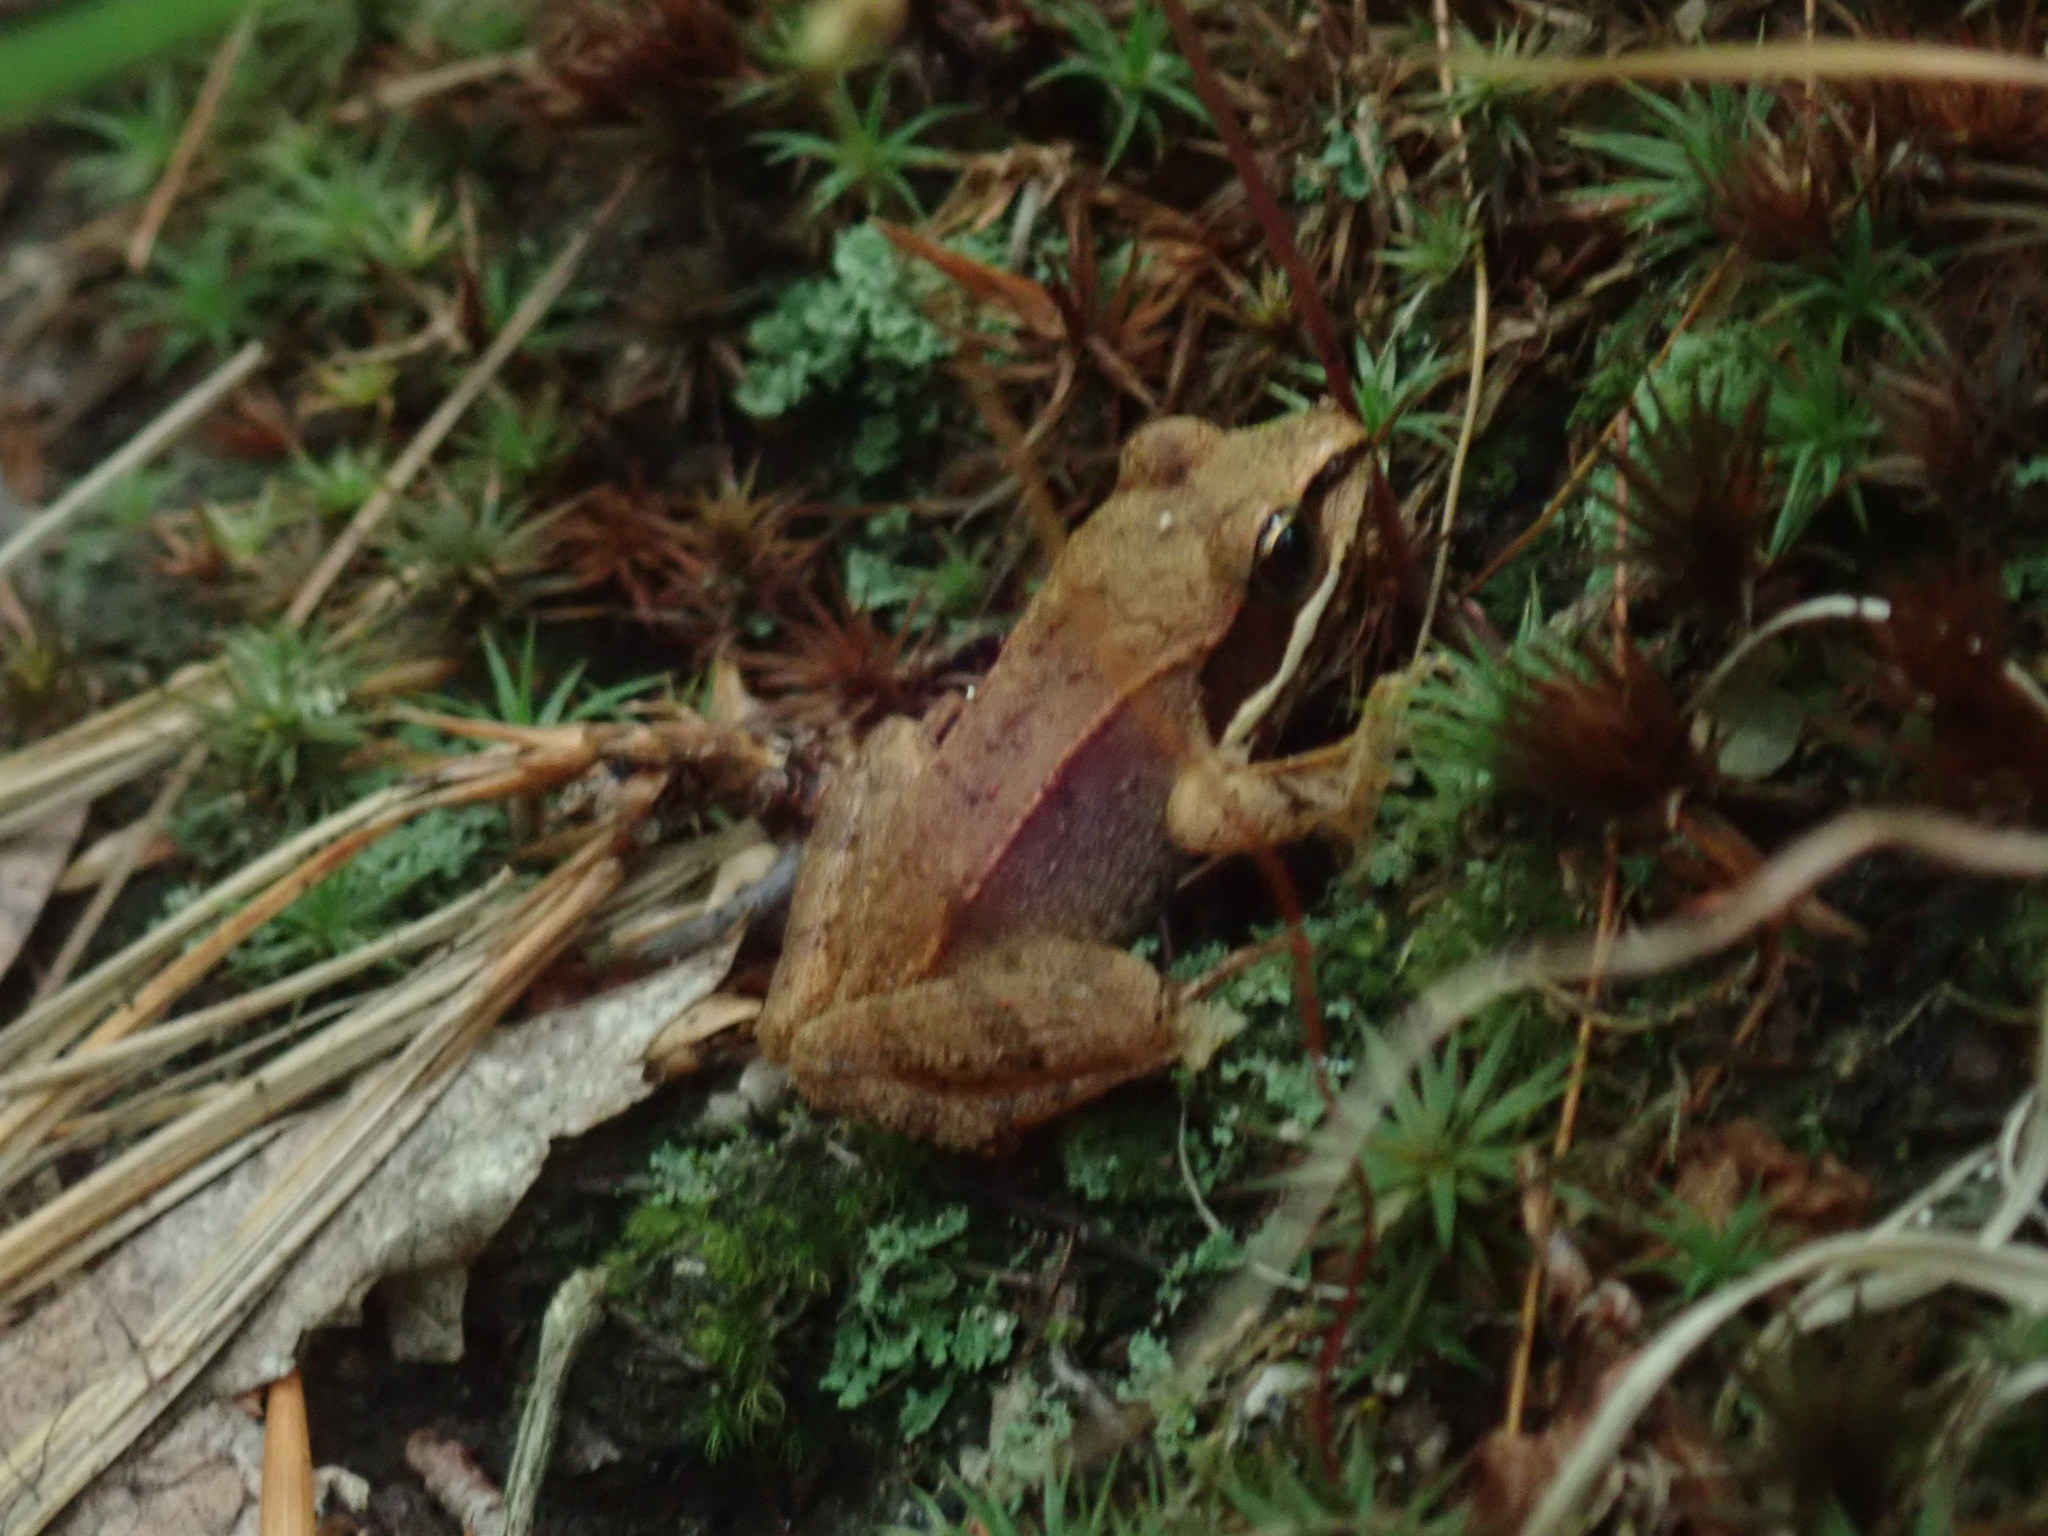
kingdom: Animalia
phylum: Chordata
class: Amphibia
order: Anura
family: Ranidae
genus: Lithobates
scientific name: Lithobates sylvaticus
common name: Wood frog
